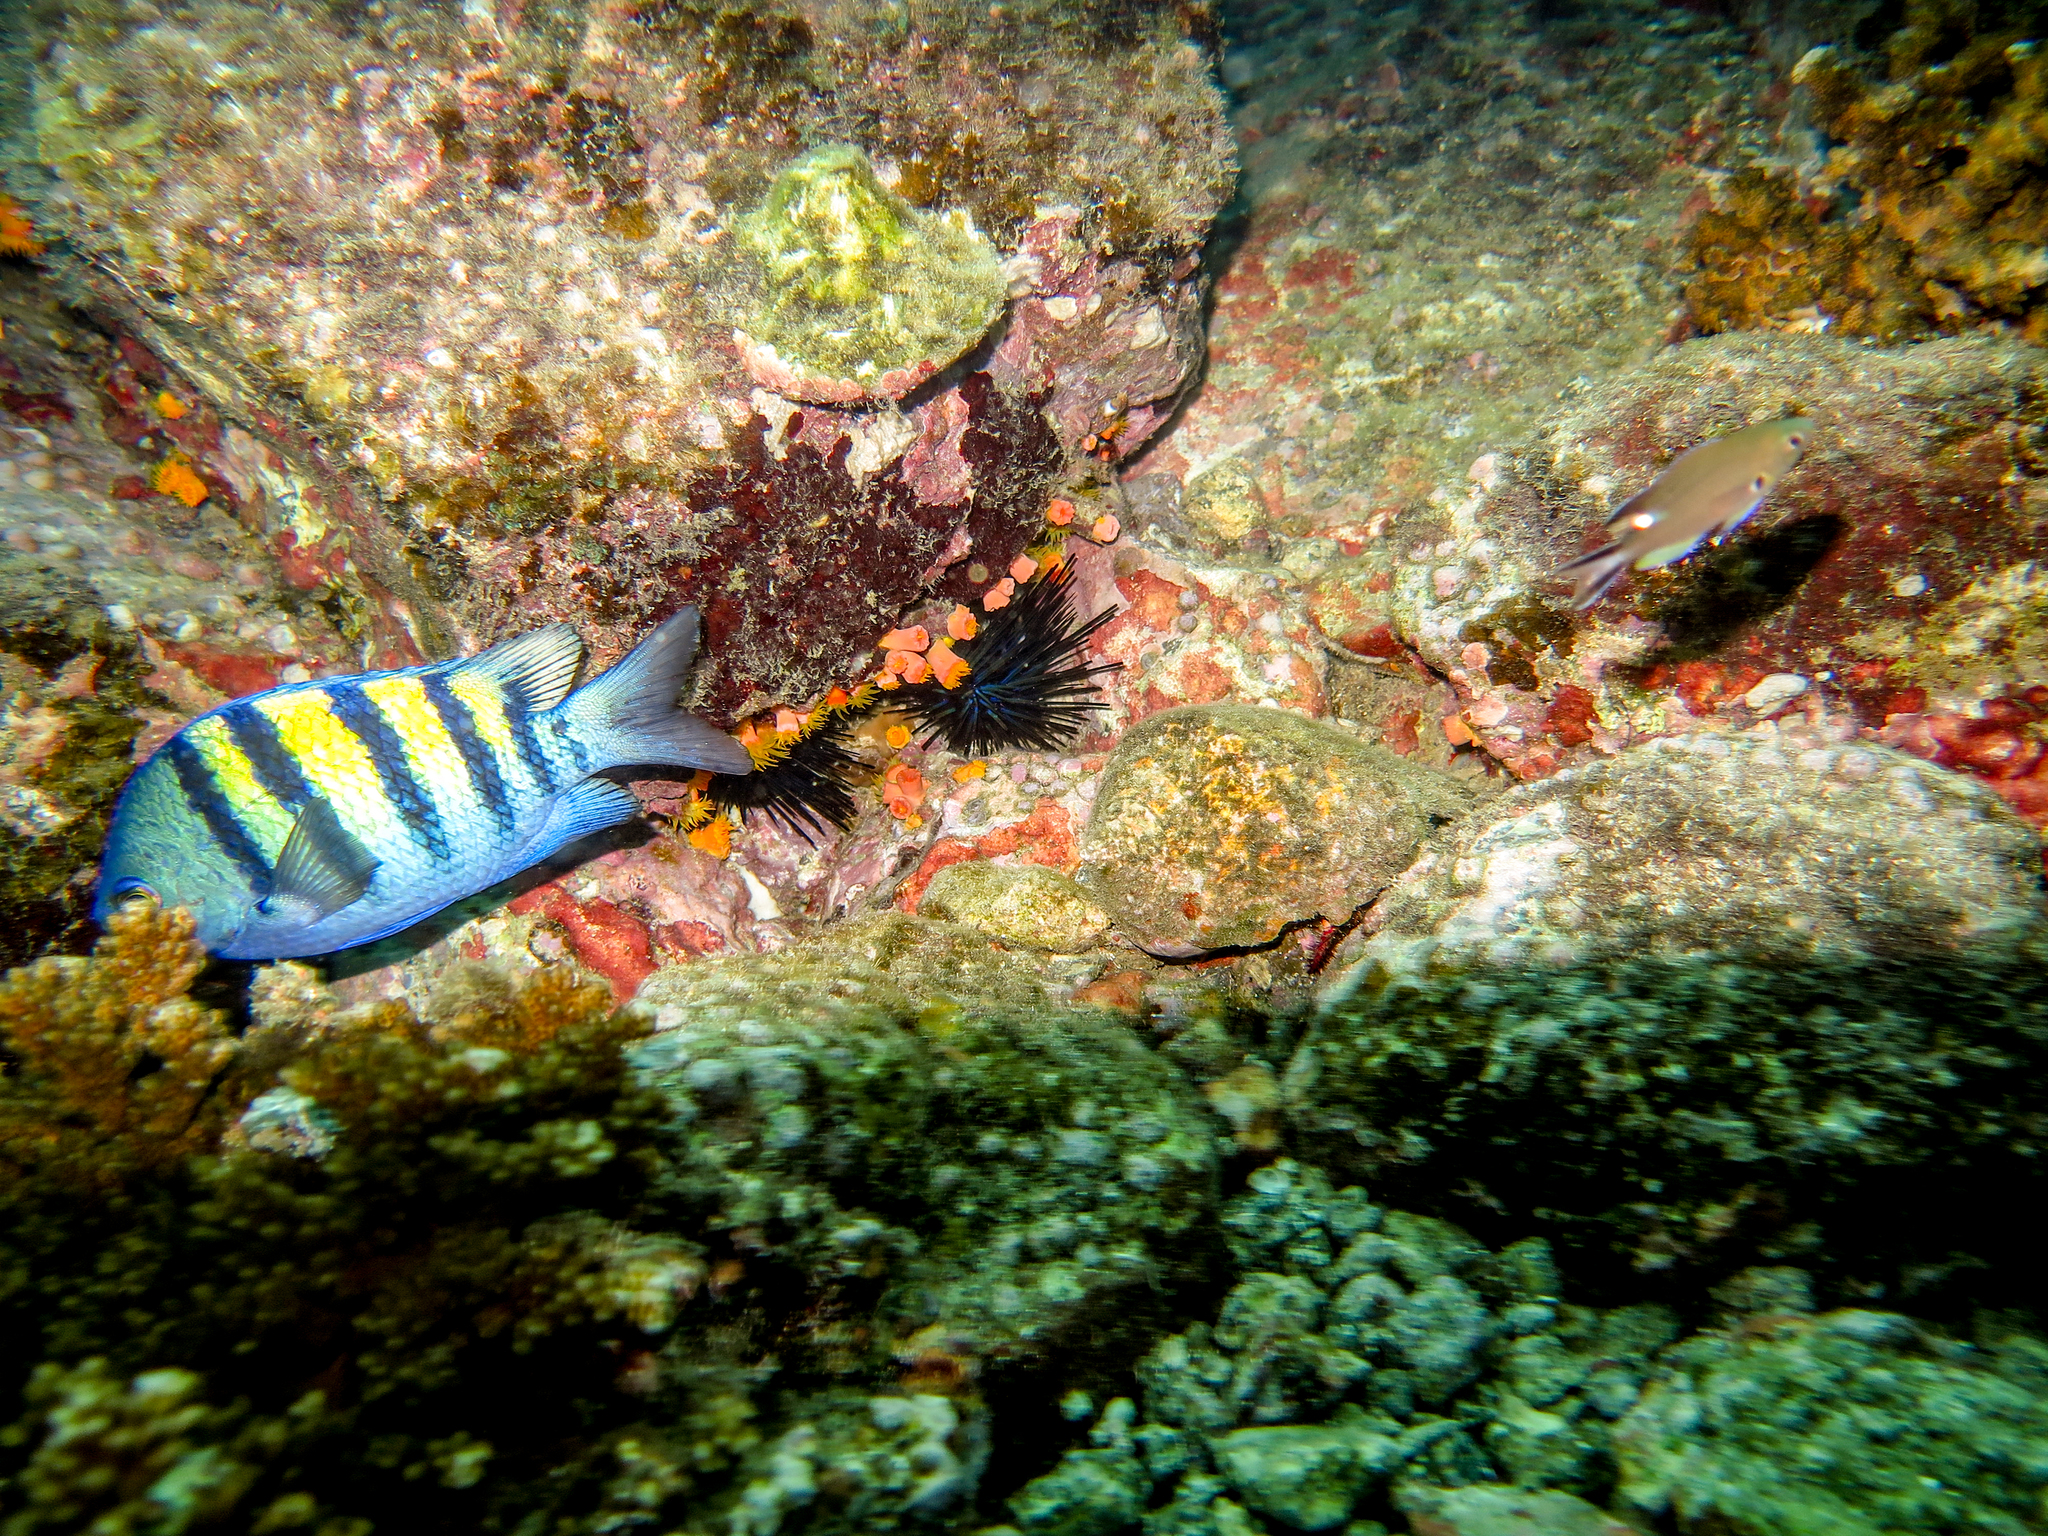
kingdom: Animalia
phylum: Chordata
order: Perciformes
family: Pomacentridae
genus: Chromis
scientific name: Chromis atrilobata
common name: Scissortail damselfish
